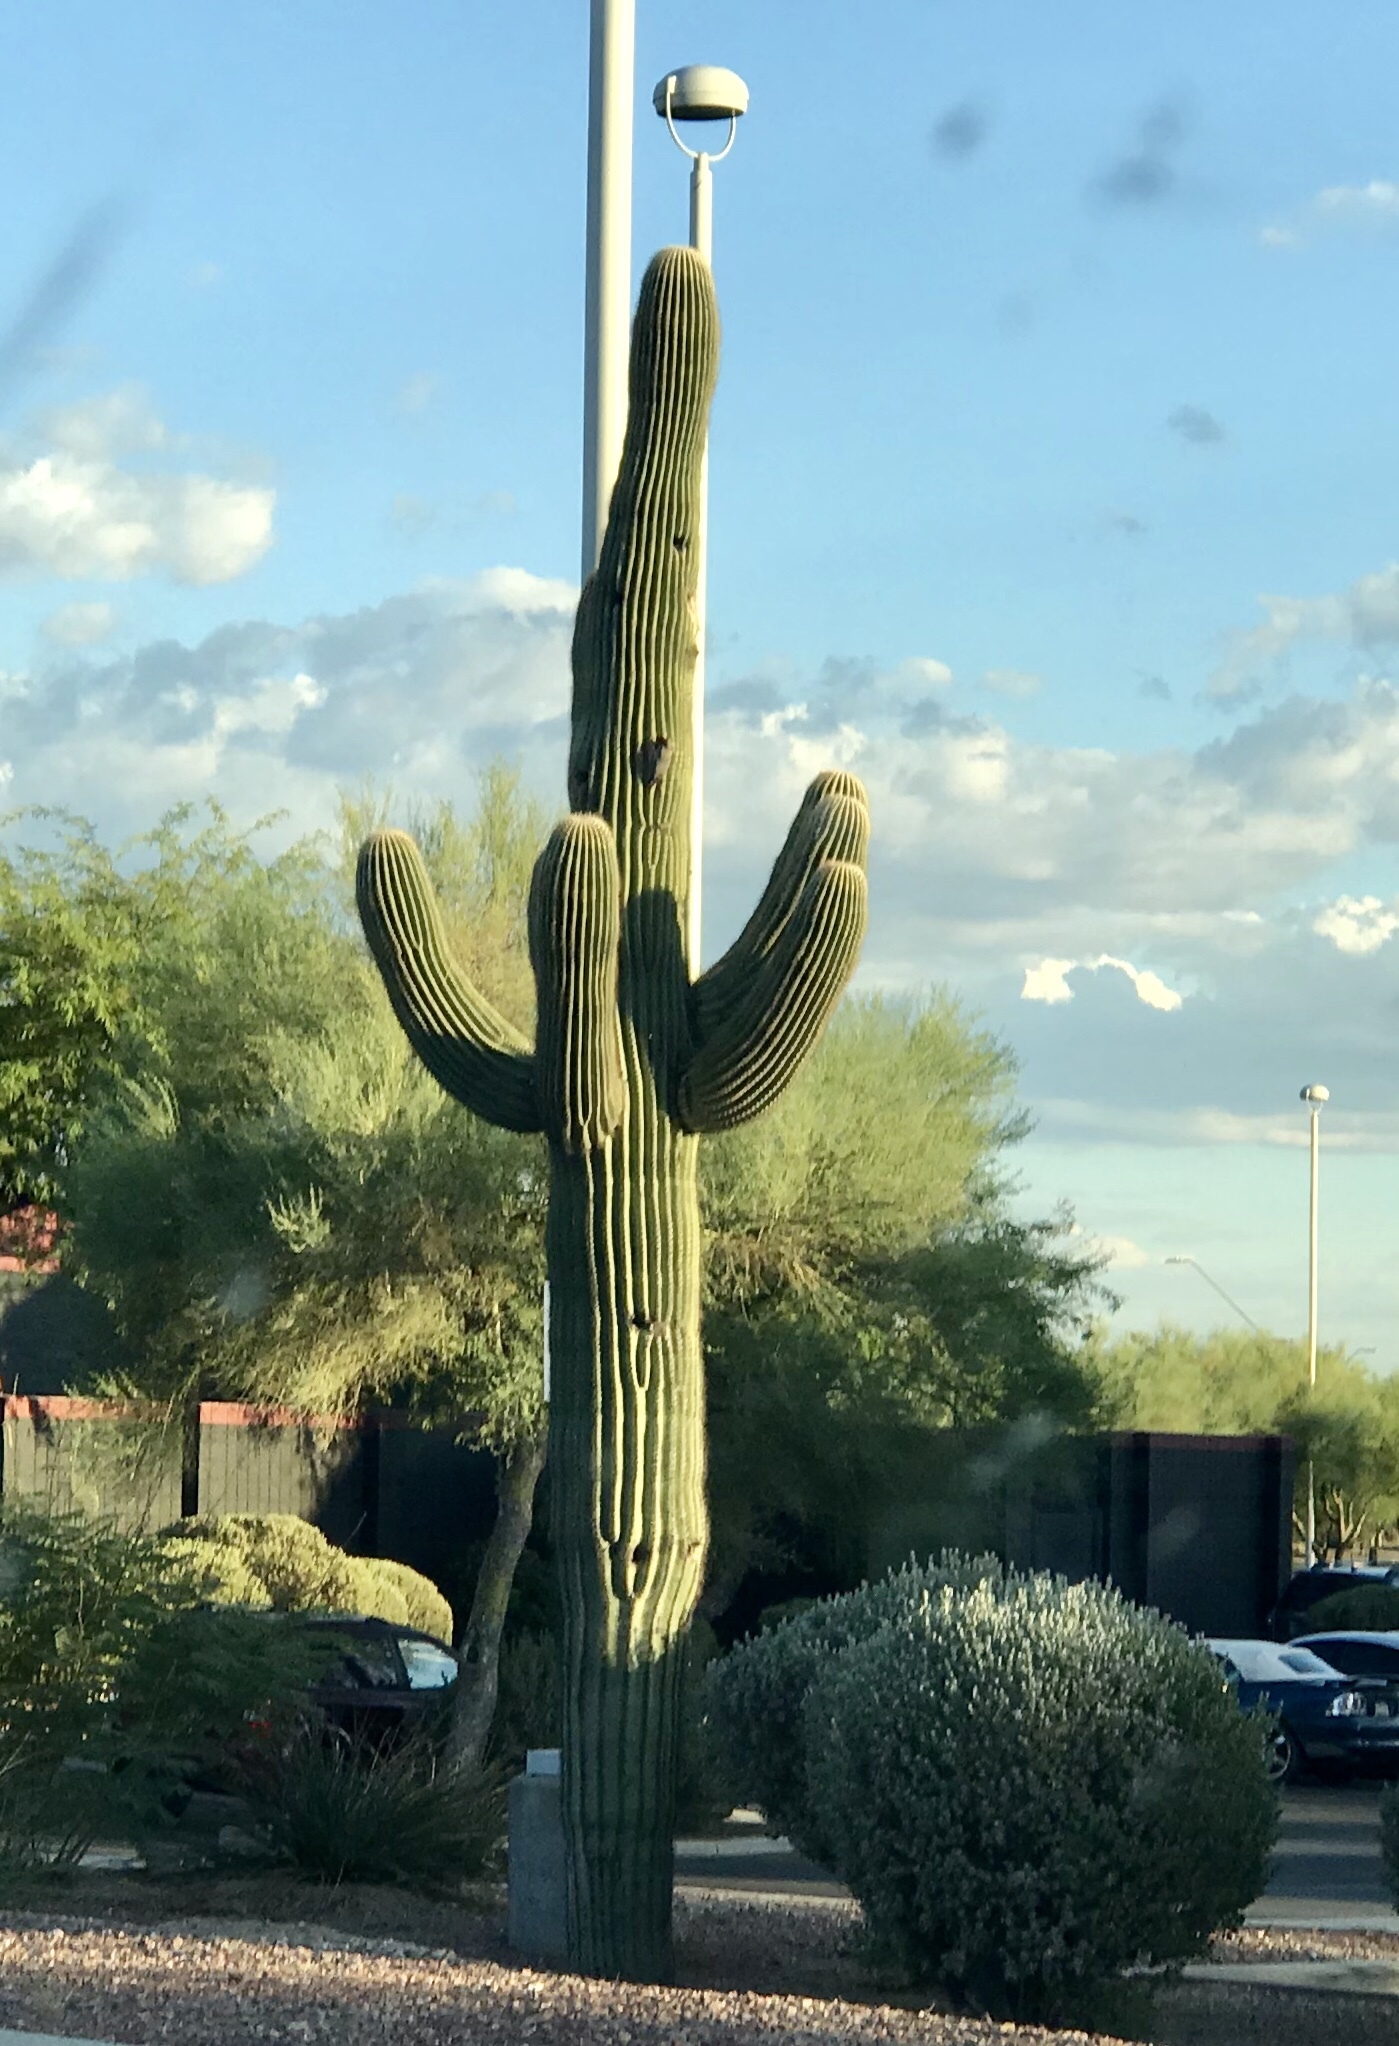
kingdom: Plantae
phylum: Tracheophyta
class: Magnoliopsida
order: Caryophyllales
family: Cactaceae
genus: Carnegiea
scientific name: Carnegiea gigantea
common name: Saguaro
